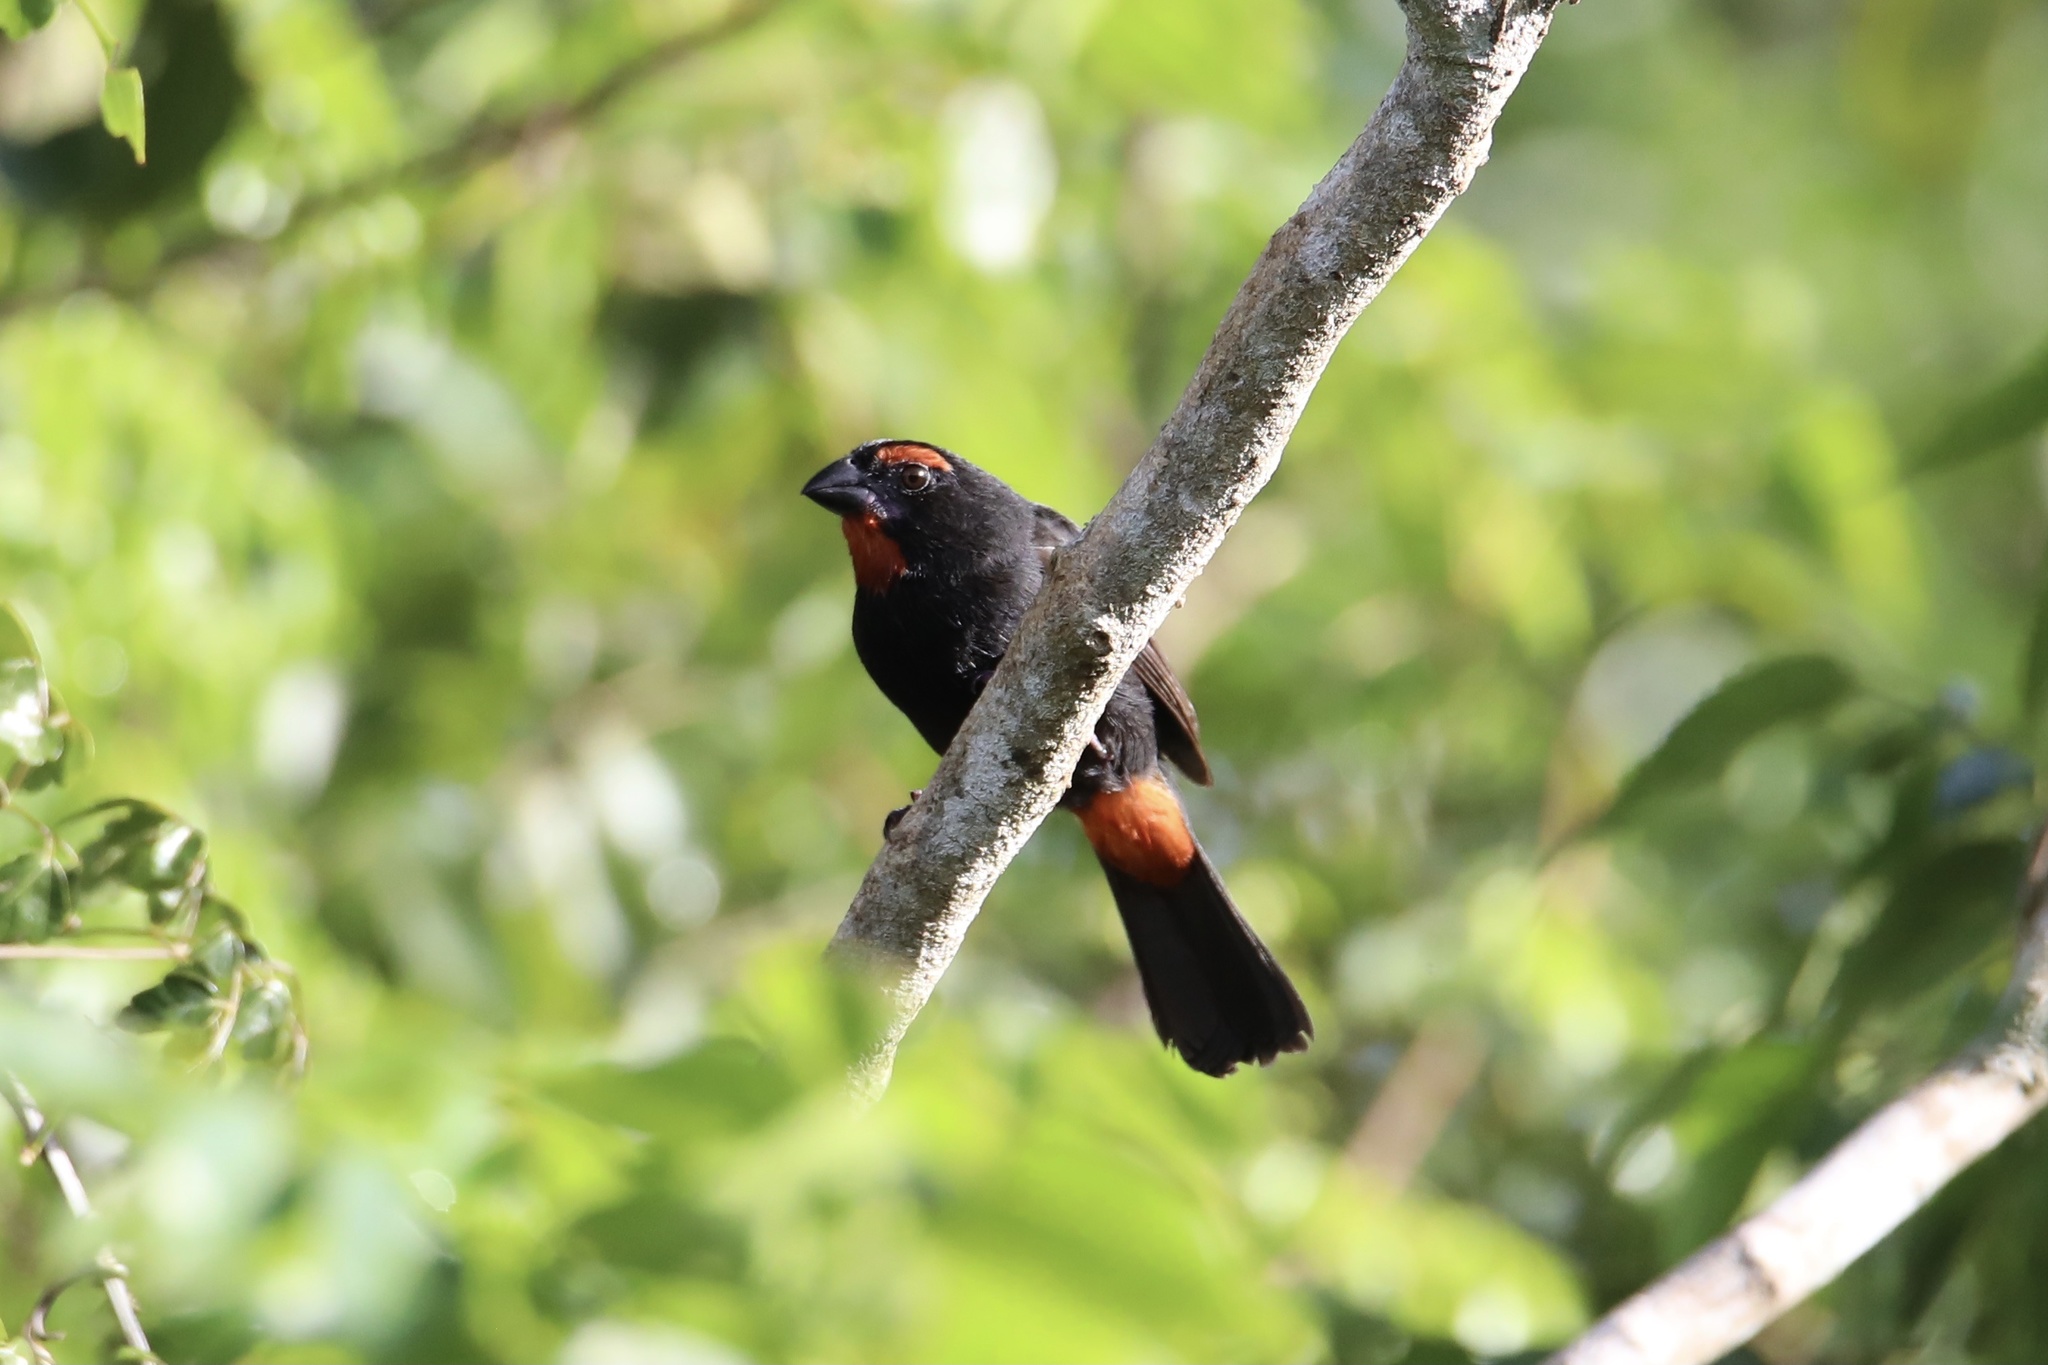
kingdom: Animalia
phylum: Chordata
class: Aves
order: Passeriformes
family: Thraupidae
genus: Melopyrrha
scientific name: Melopyrrha violacea
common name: Greater antillean bullfinch
